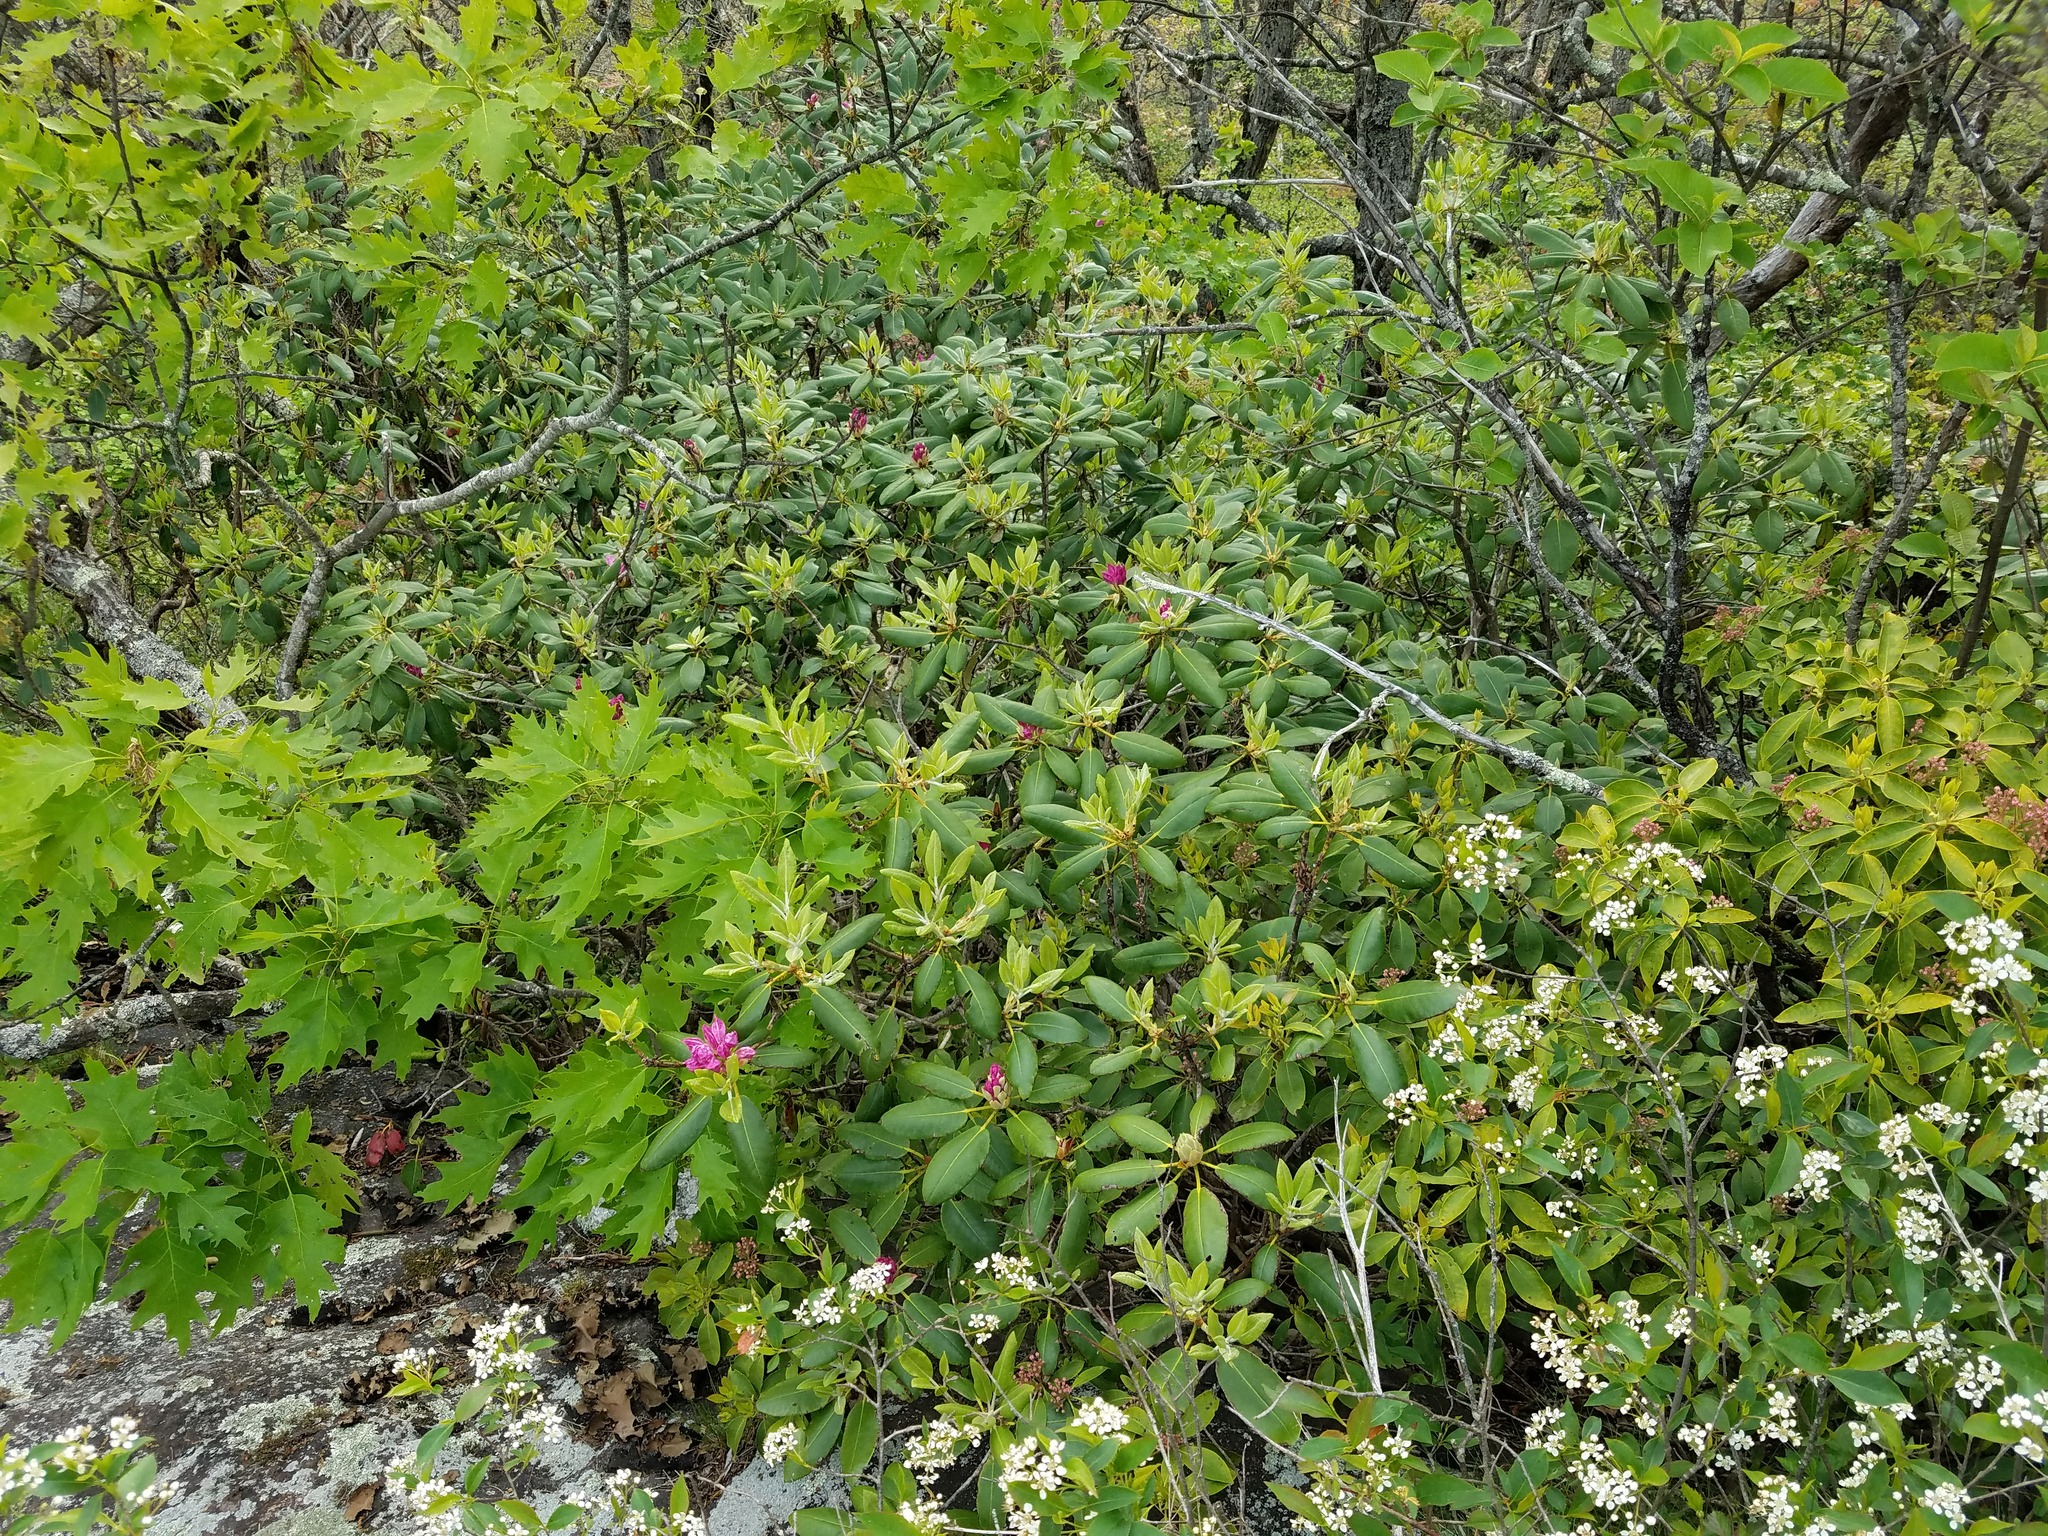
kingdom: Plantae
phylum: Tracheophyta
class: Magnoliopsida
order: Ericales
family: Ericaceae
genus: Rhododendron
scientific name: Rhododendron catawbiense
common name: Catawba rhododendron
